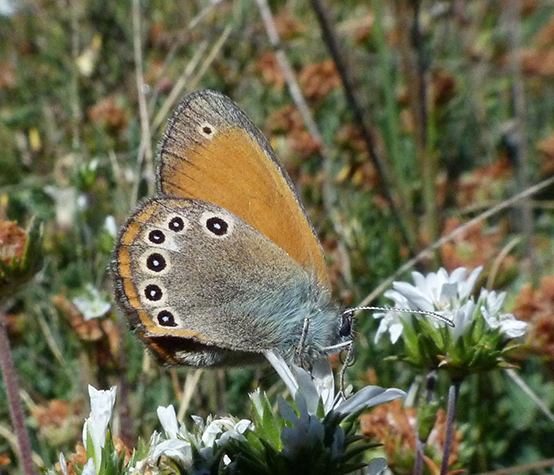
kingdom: Animalia
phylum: Arthropoda
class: Insecta
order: Lepidoptera
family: Nymphalidae
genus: Coenonympha
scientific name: Coenonympha iphis
